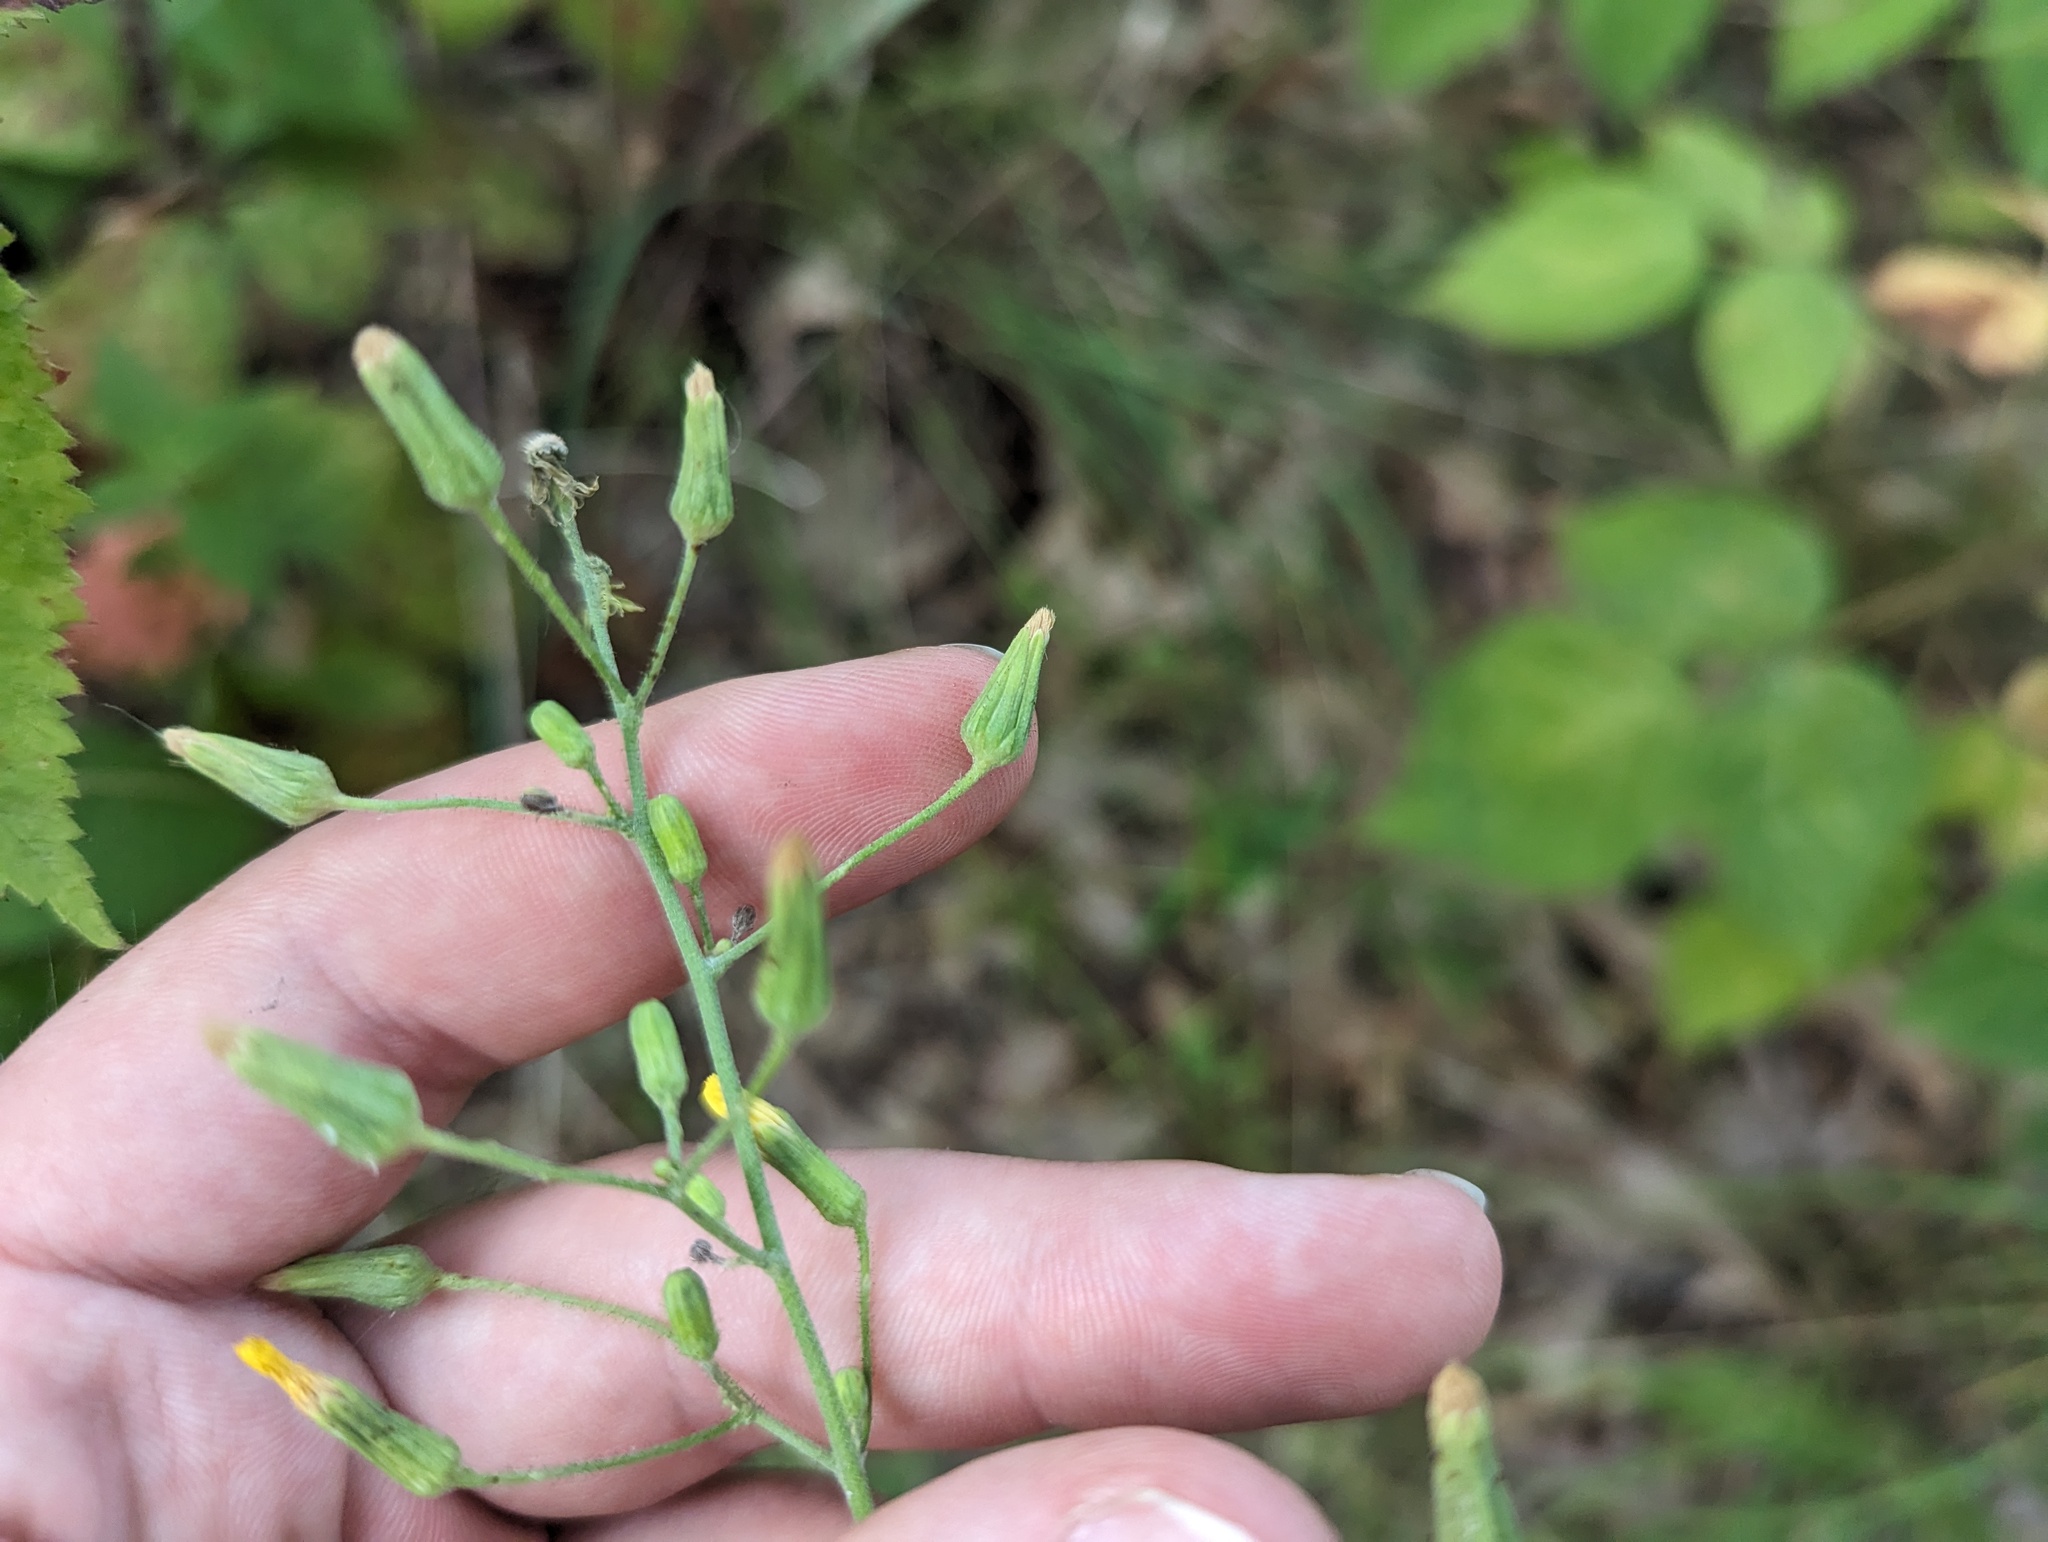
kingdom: Plantae
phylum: Tracheophyta
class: Magnoliopsida
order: Asterales
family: Asteraceae
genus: Hieracium
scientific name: Hieracium gronovii
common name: Beaked hawkweed
